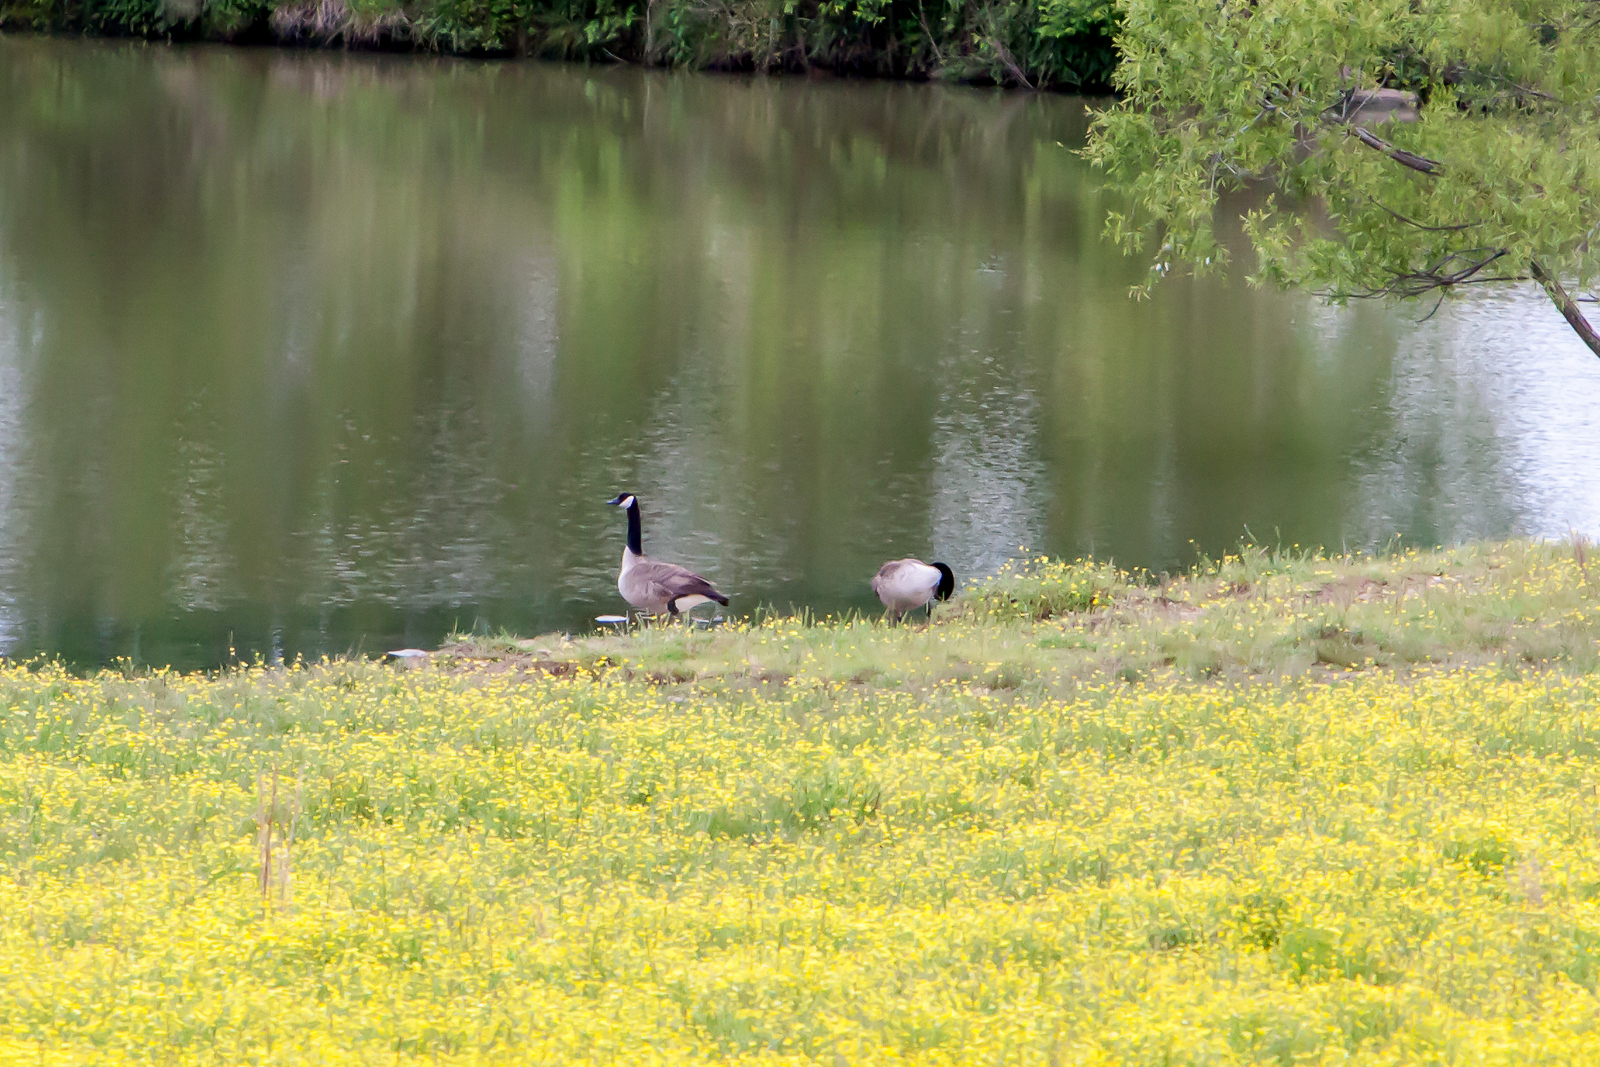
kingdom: Animalia
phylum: Chordata
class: Aves
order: Anseriformes
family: Anatidae
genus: Branta
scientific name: Branta canadensis
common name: Canada goose
